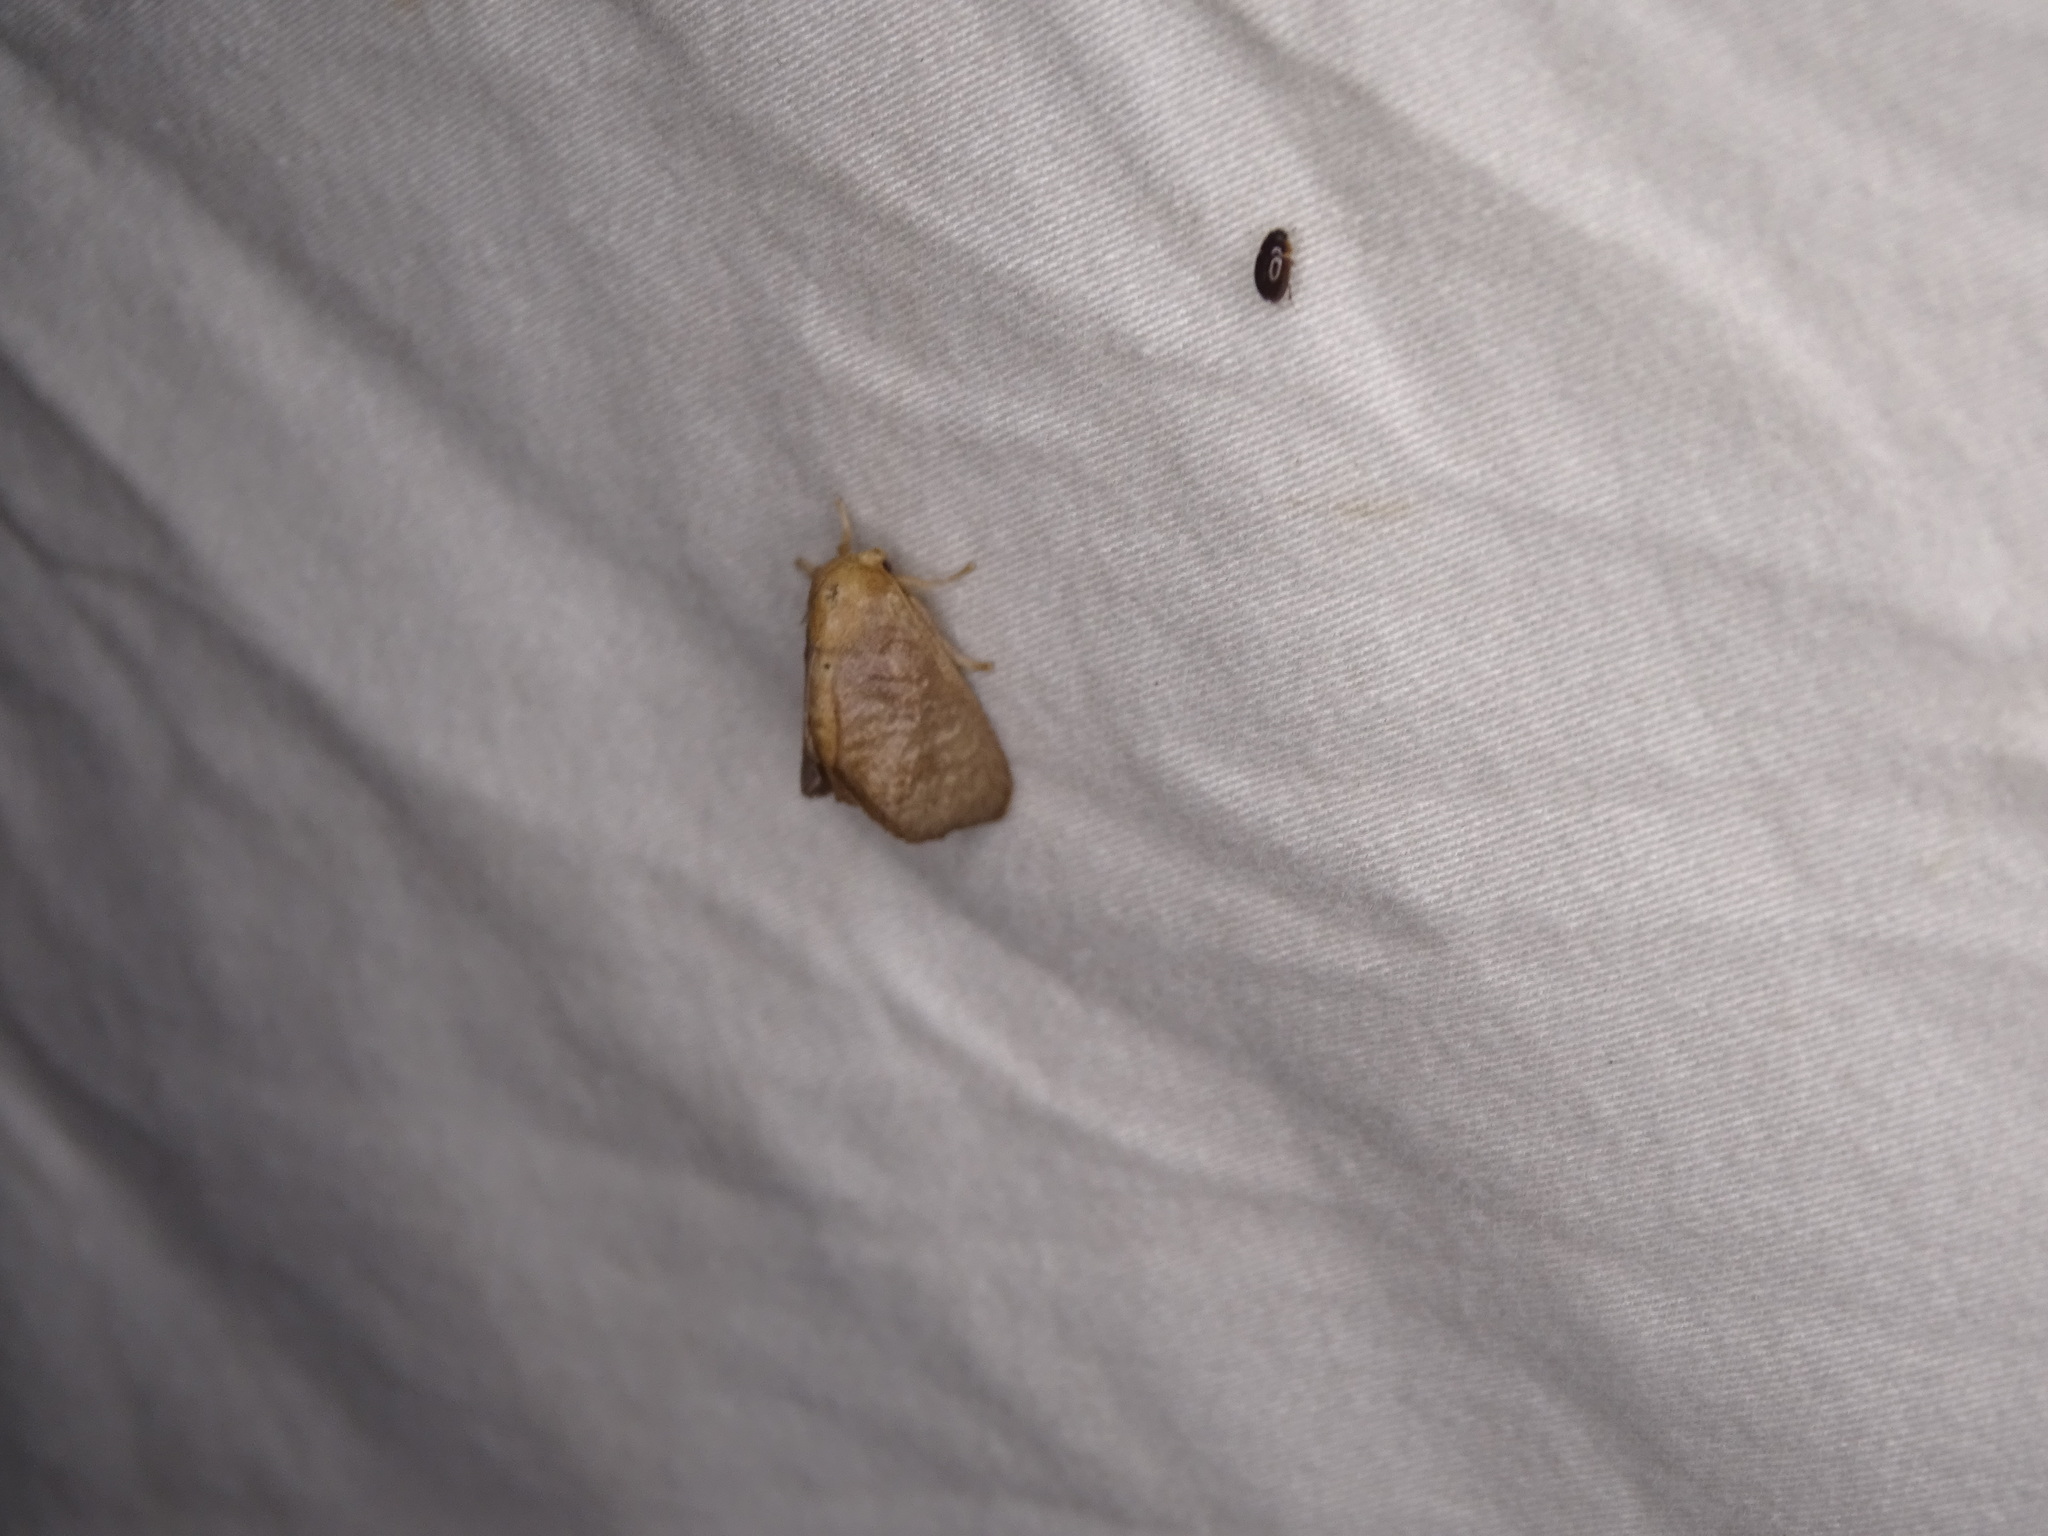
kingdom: Animalia
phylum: Arthropoda
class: Insecta
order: Lepidoptera
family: Limacodidae
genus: Isa
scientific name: Isa textula
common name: Crowned slug moth
